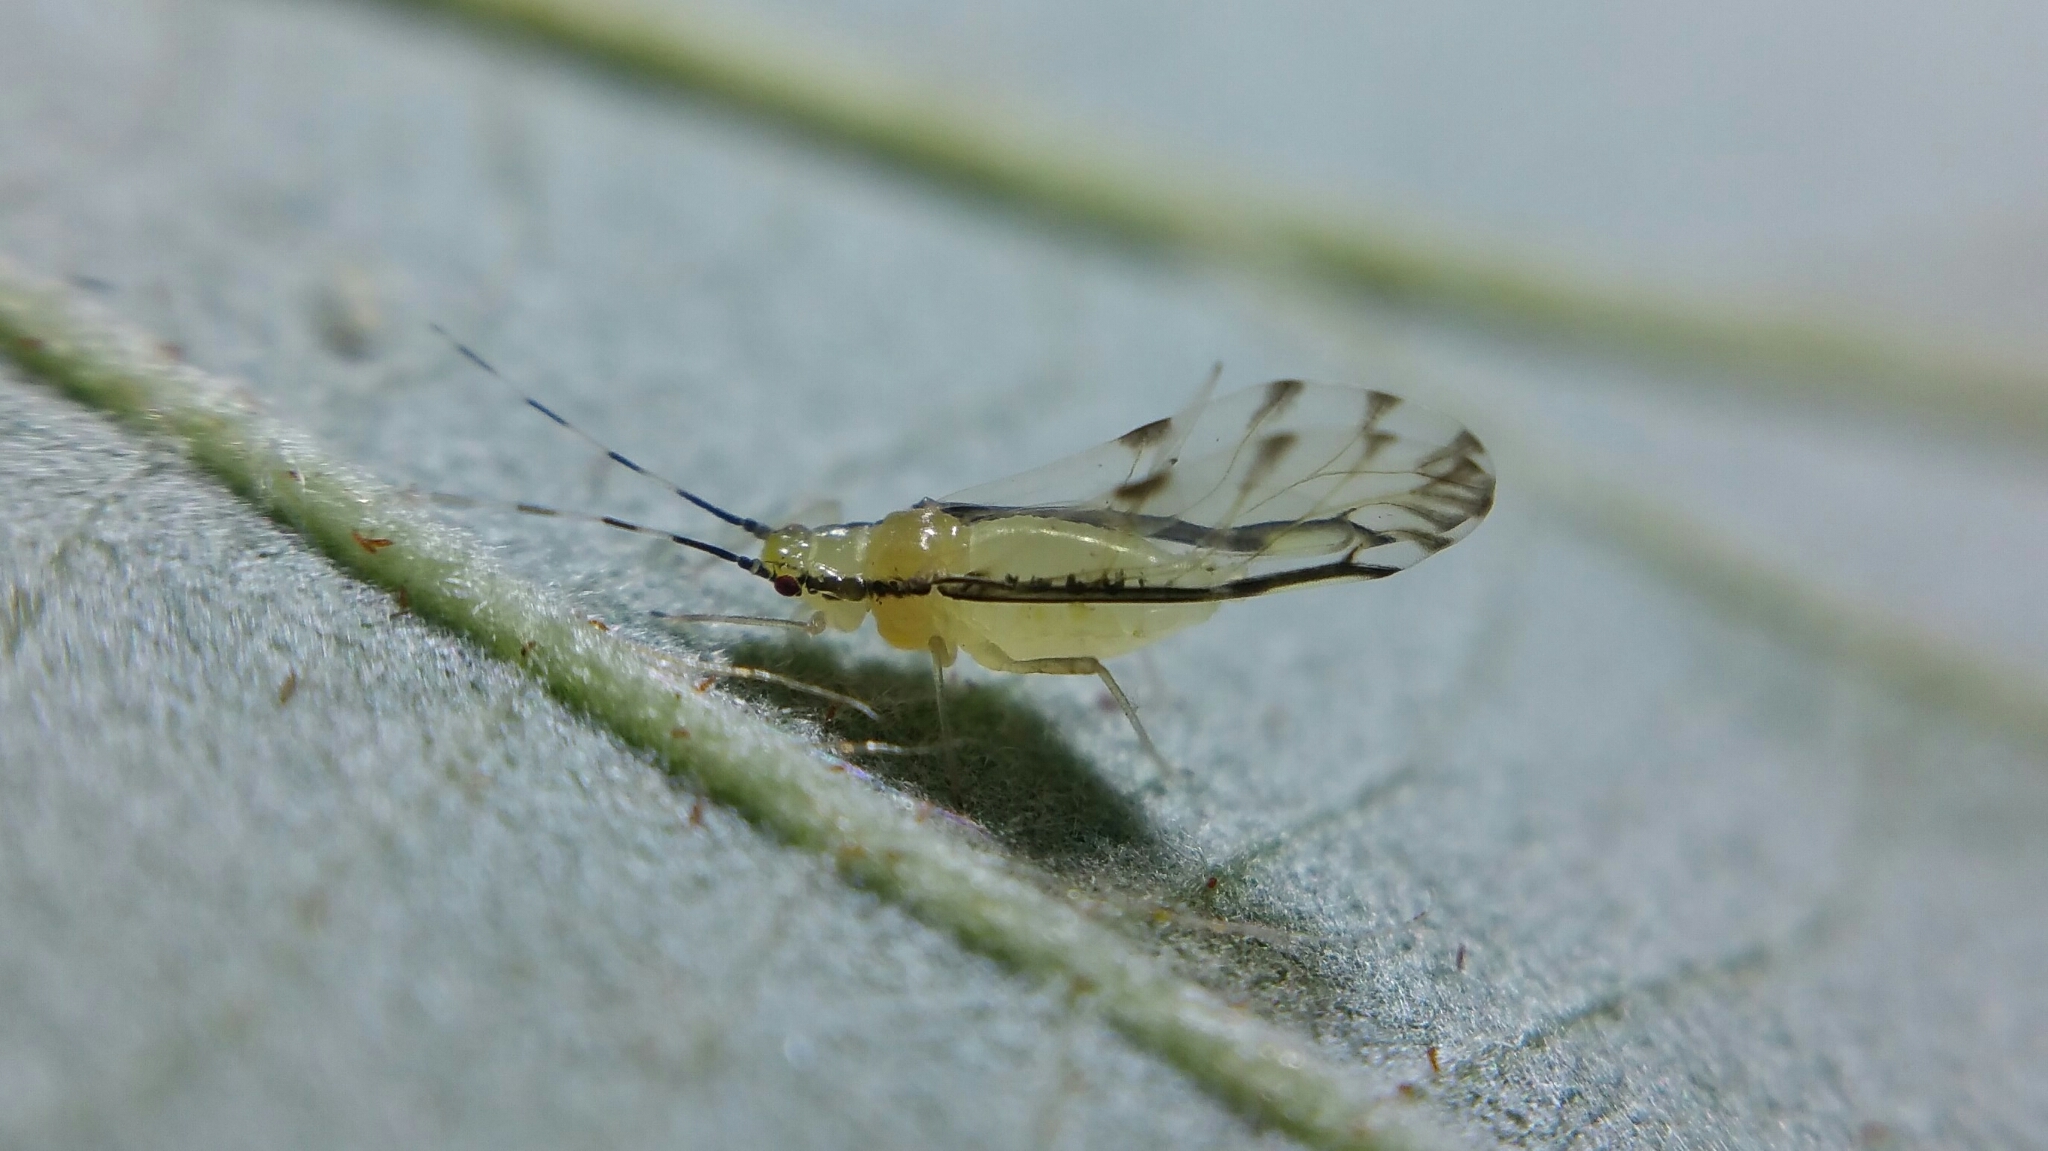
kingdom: Animalia
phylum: Arthropoda
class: Insecta
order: Hemiptera
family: Aphididae
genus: Eucallipterus
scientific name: Eucallipterus tiliae
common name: Aphid
